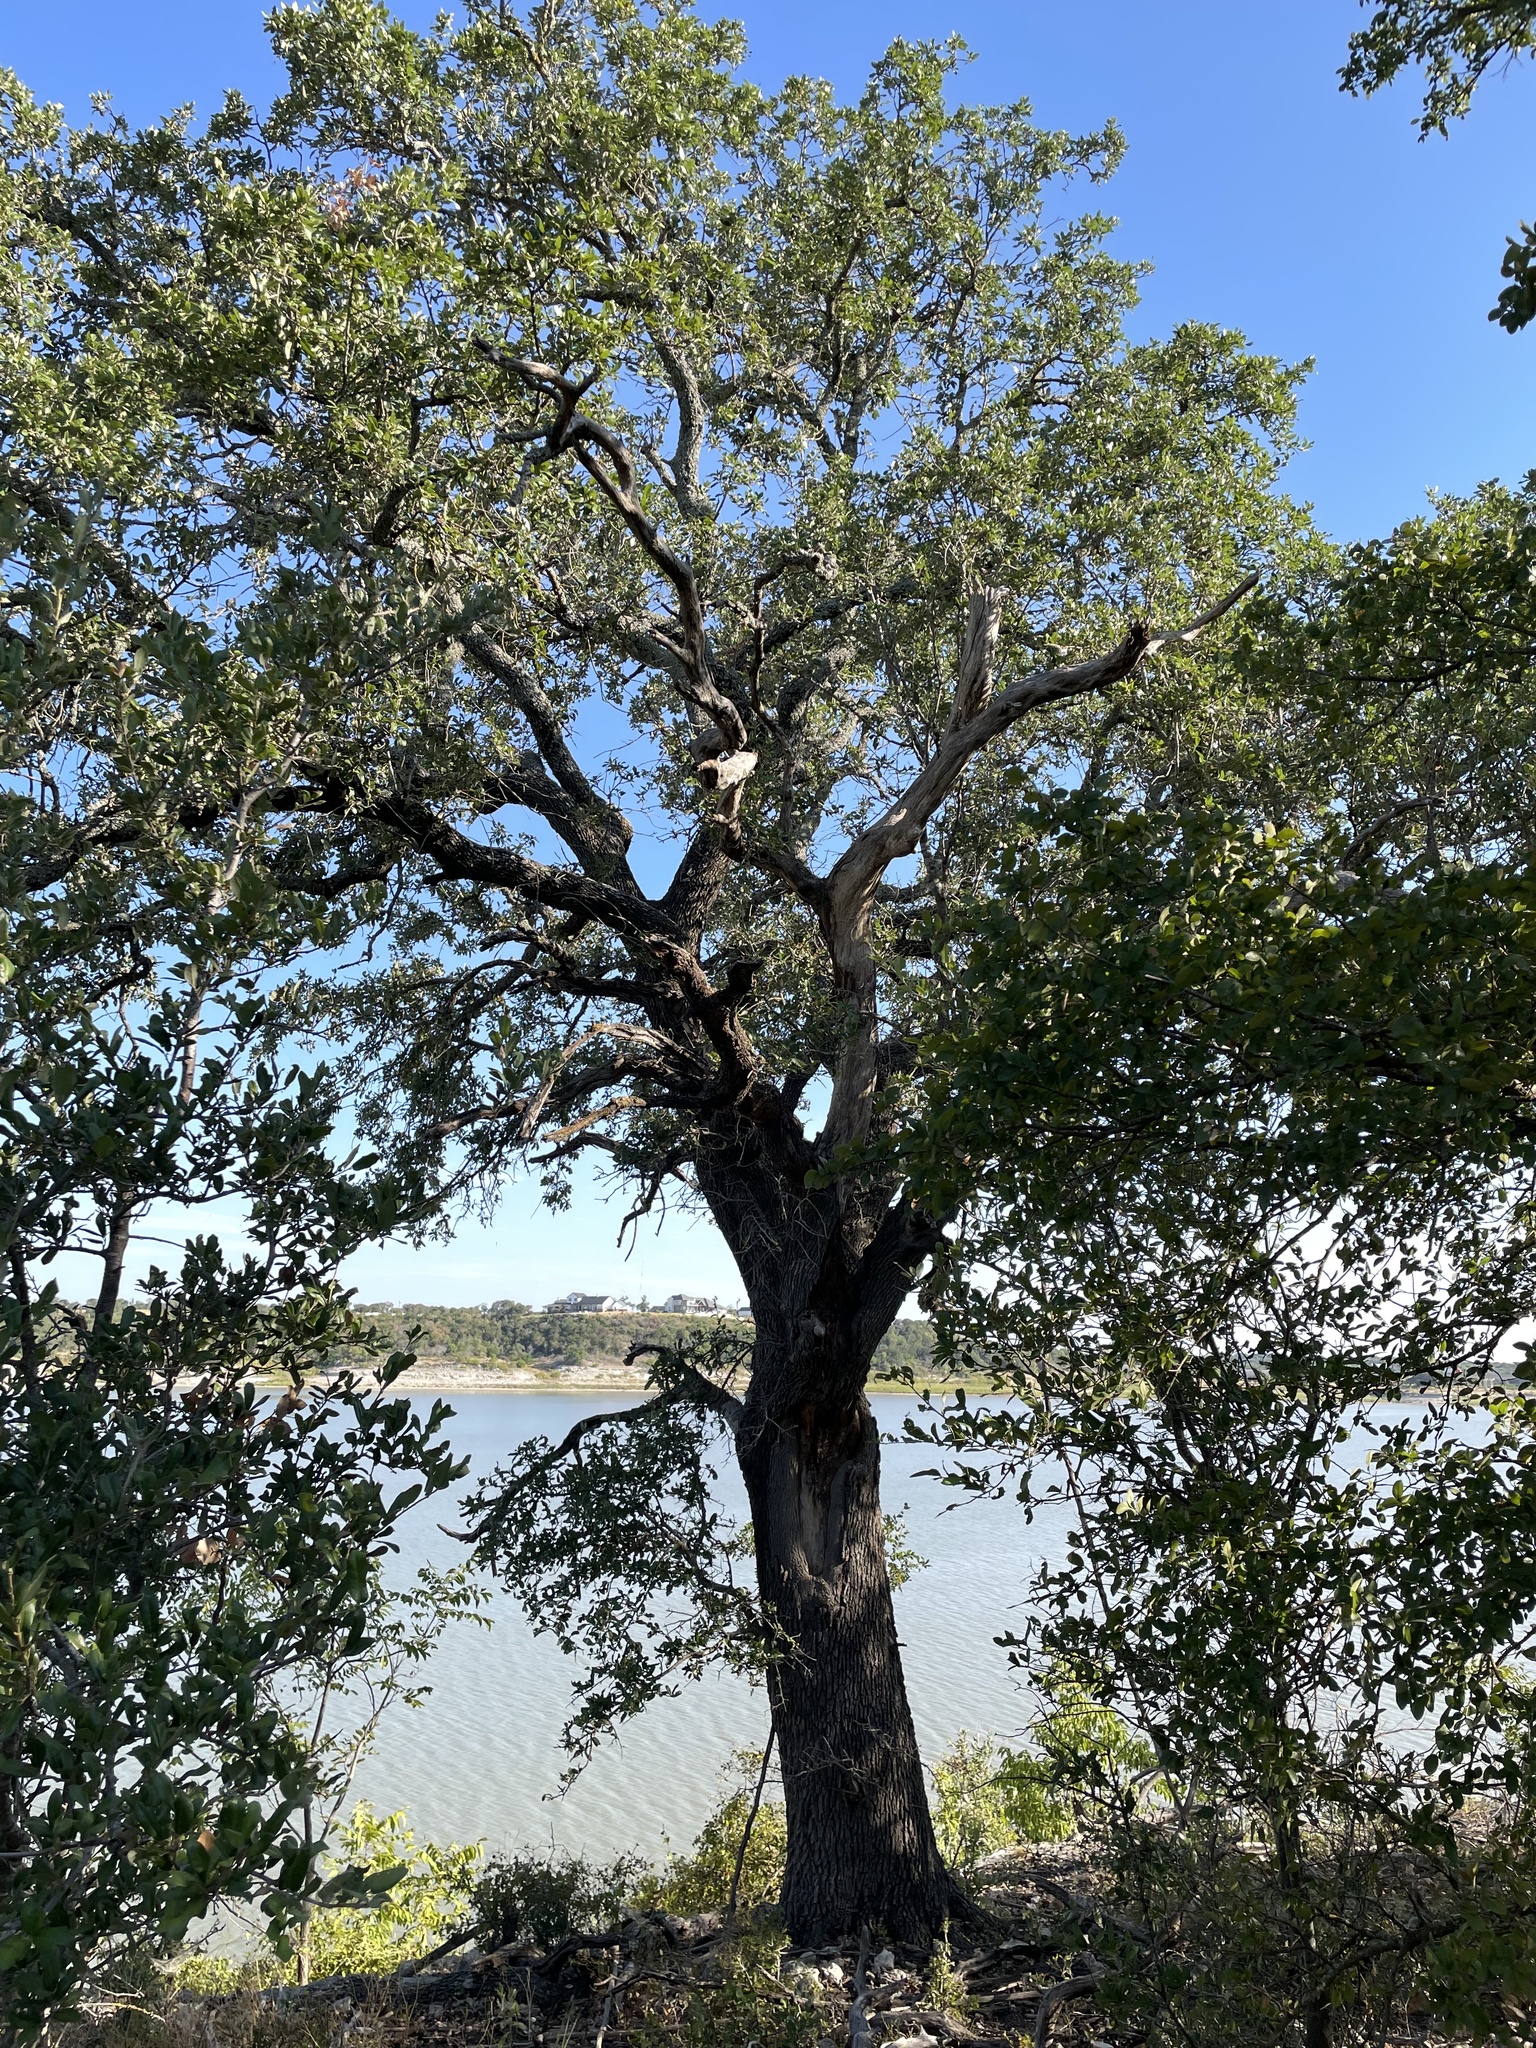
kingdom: Plantae
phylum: Tracheophyta
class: Magnoliopsida
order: Fagales
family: Fagaceae
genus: Quercus
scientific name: Quercus fusiformis
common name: Texas live oak
